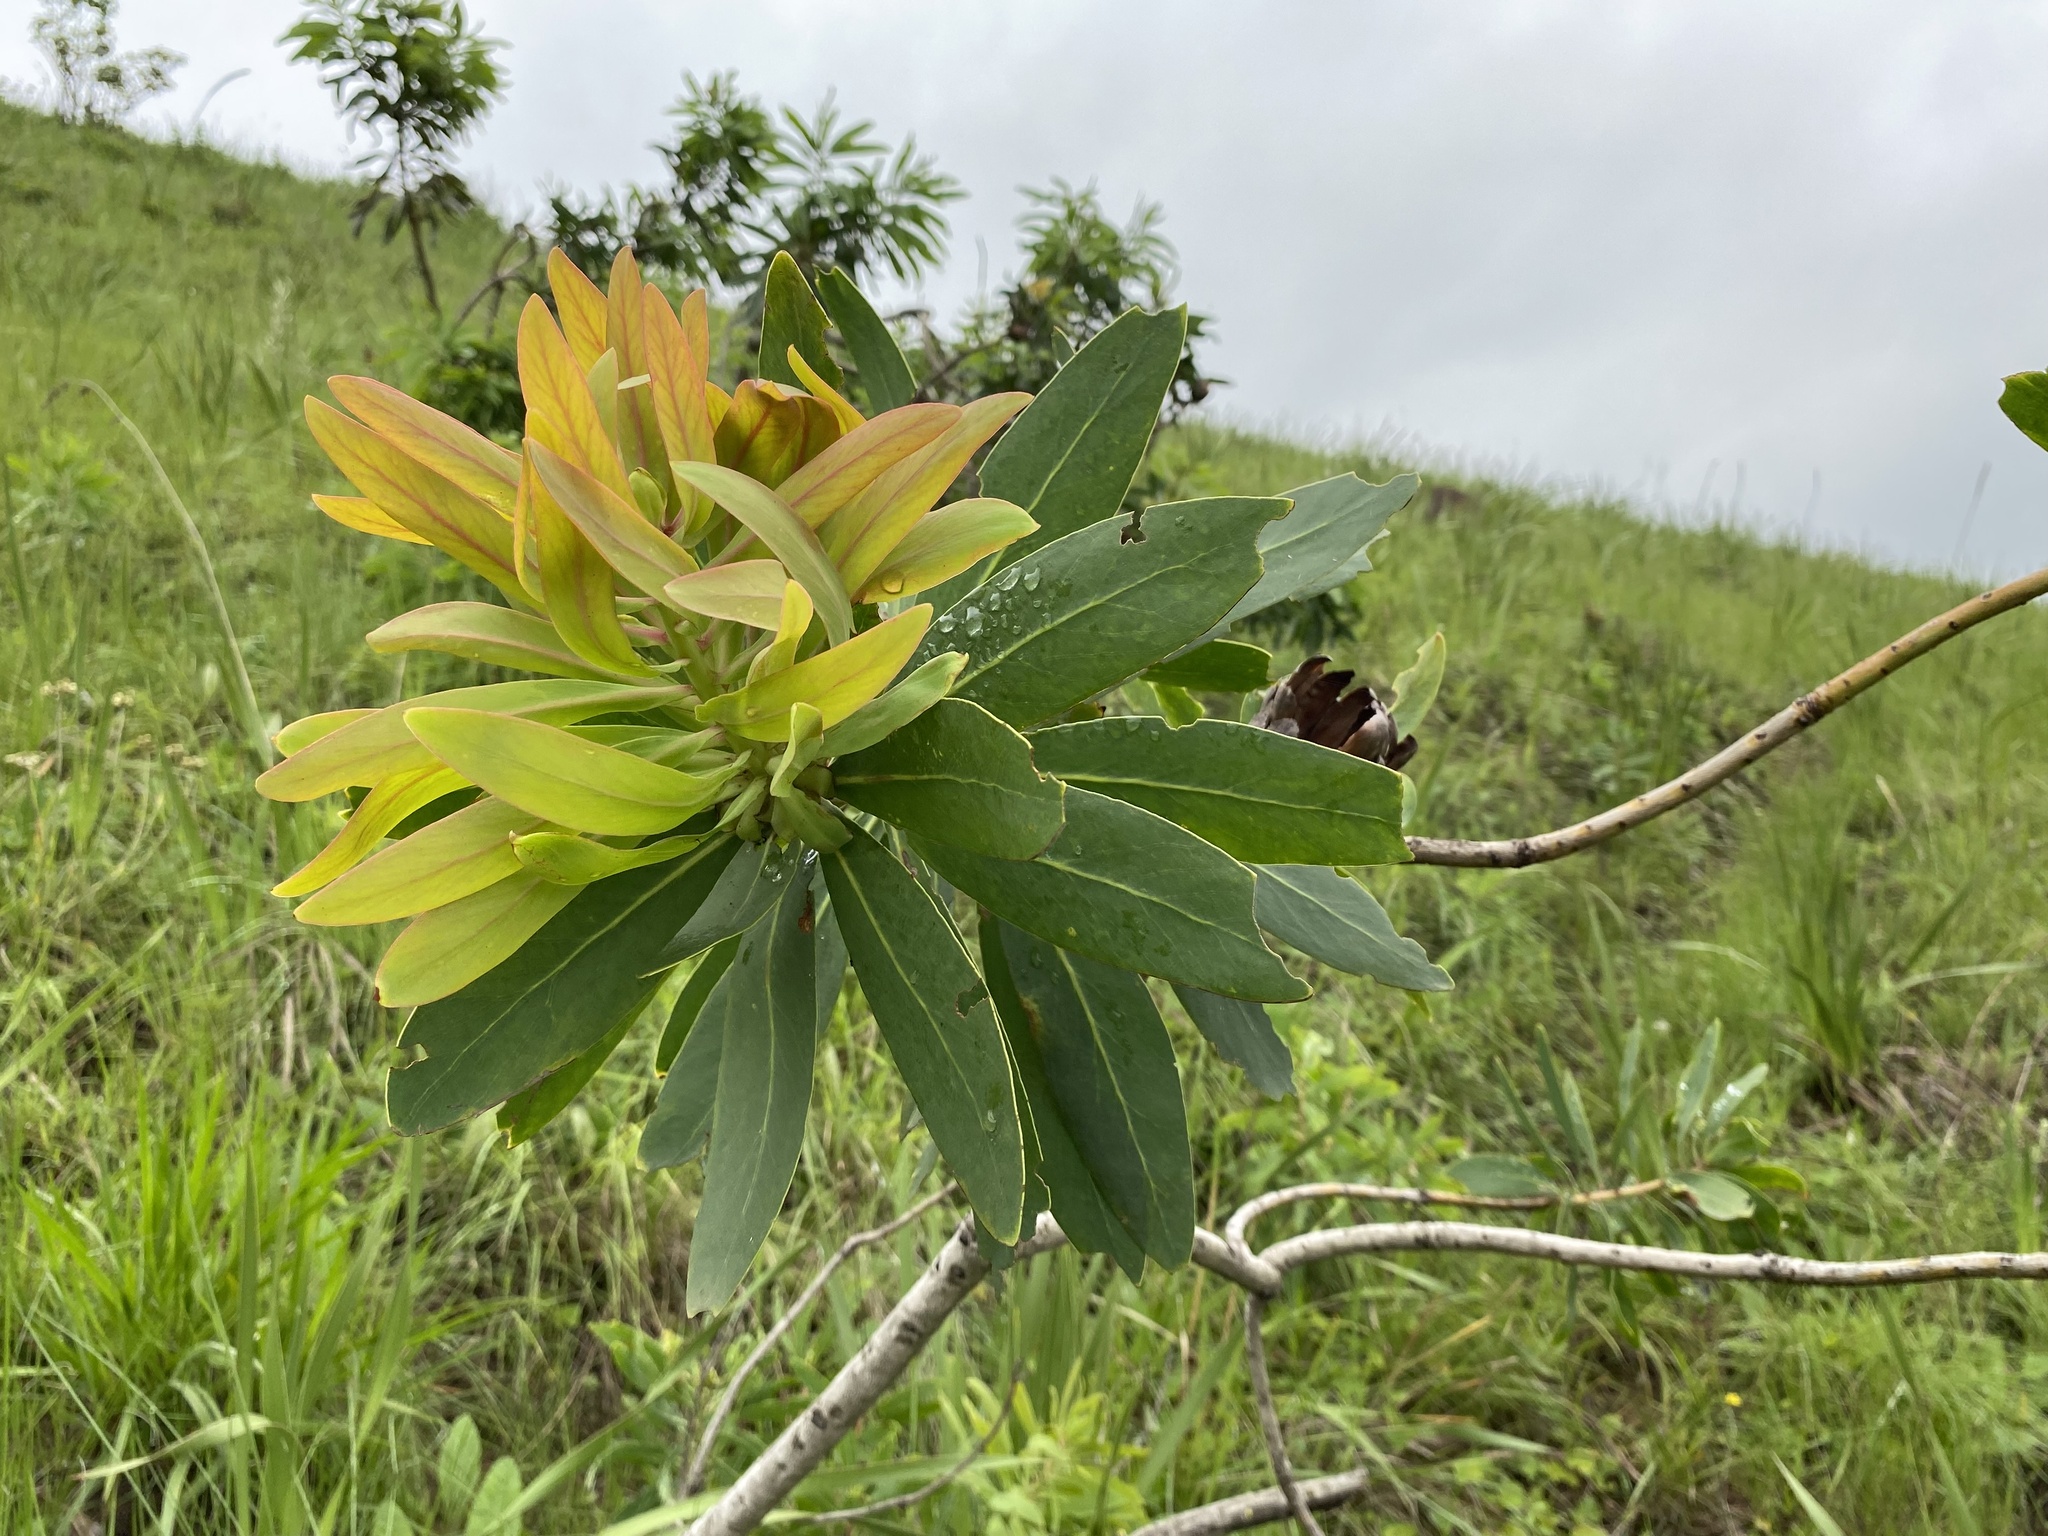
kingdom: Plantae
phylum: Tracheophyta
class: Magnoliopsida
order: Proteales
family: Proteaceae
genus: Protea
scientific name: Protea caffra
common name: Common sugarbush
